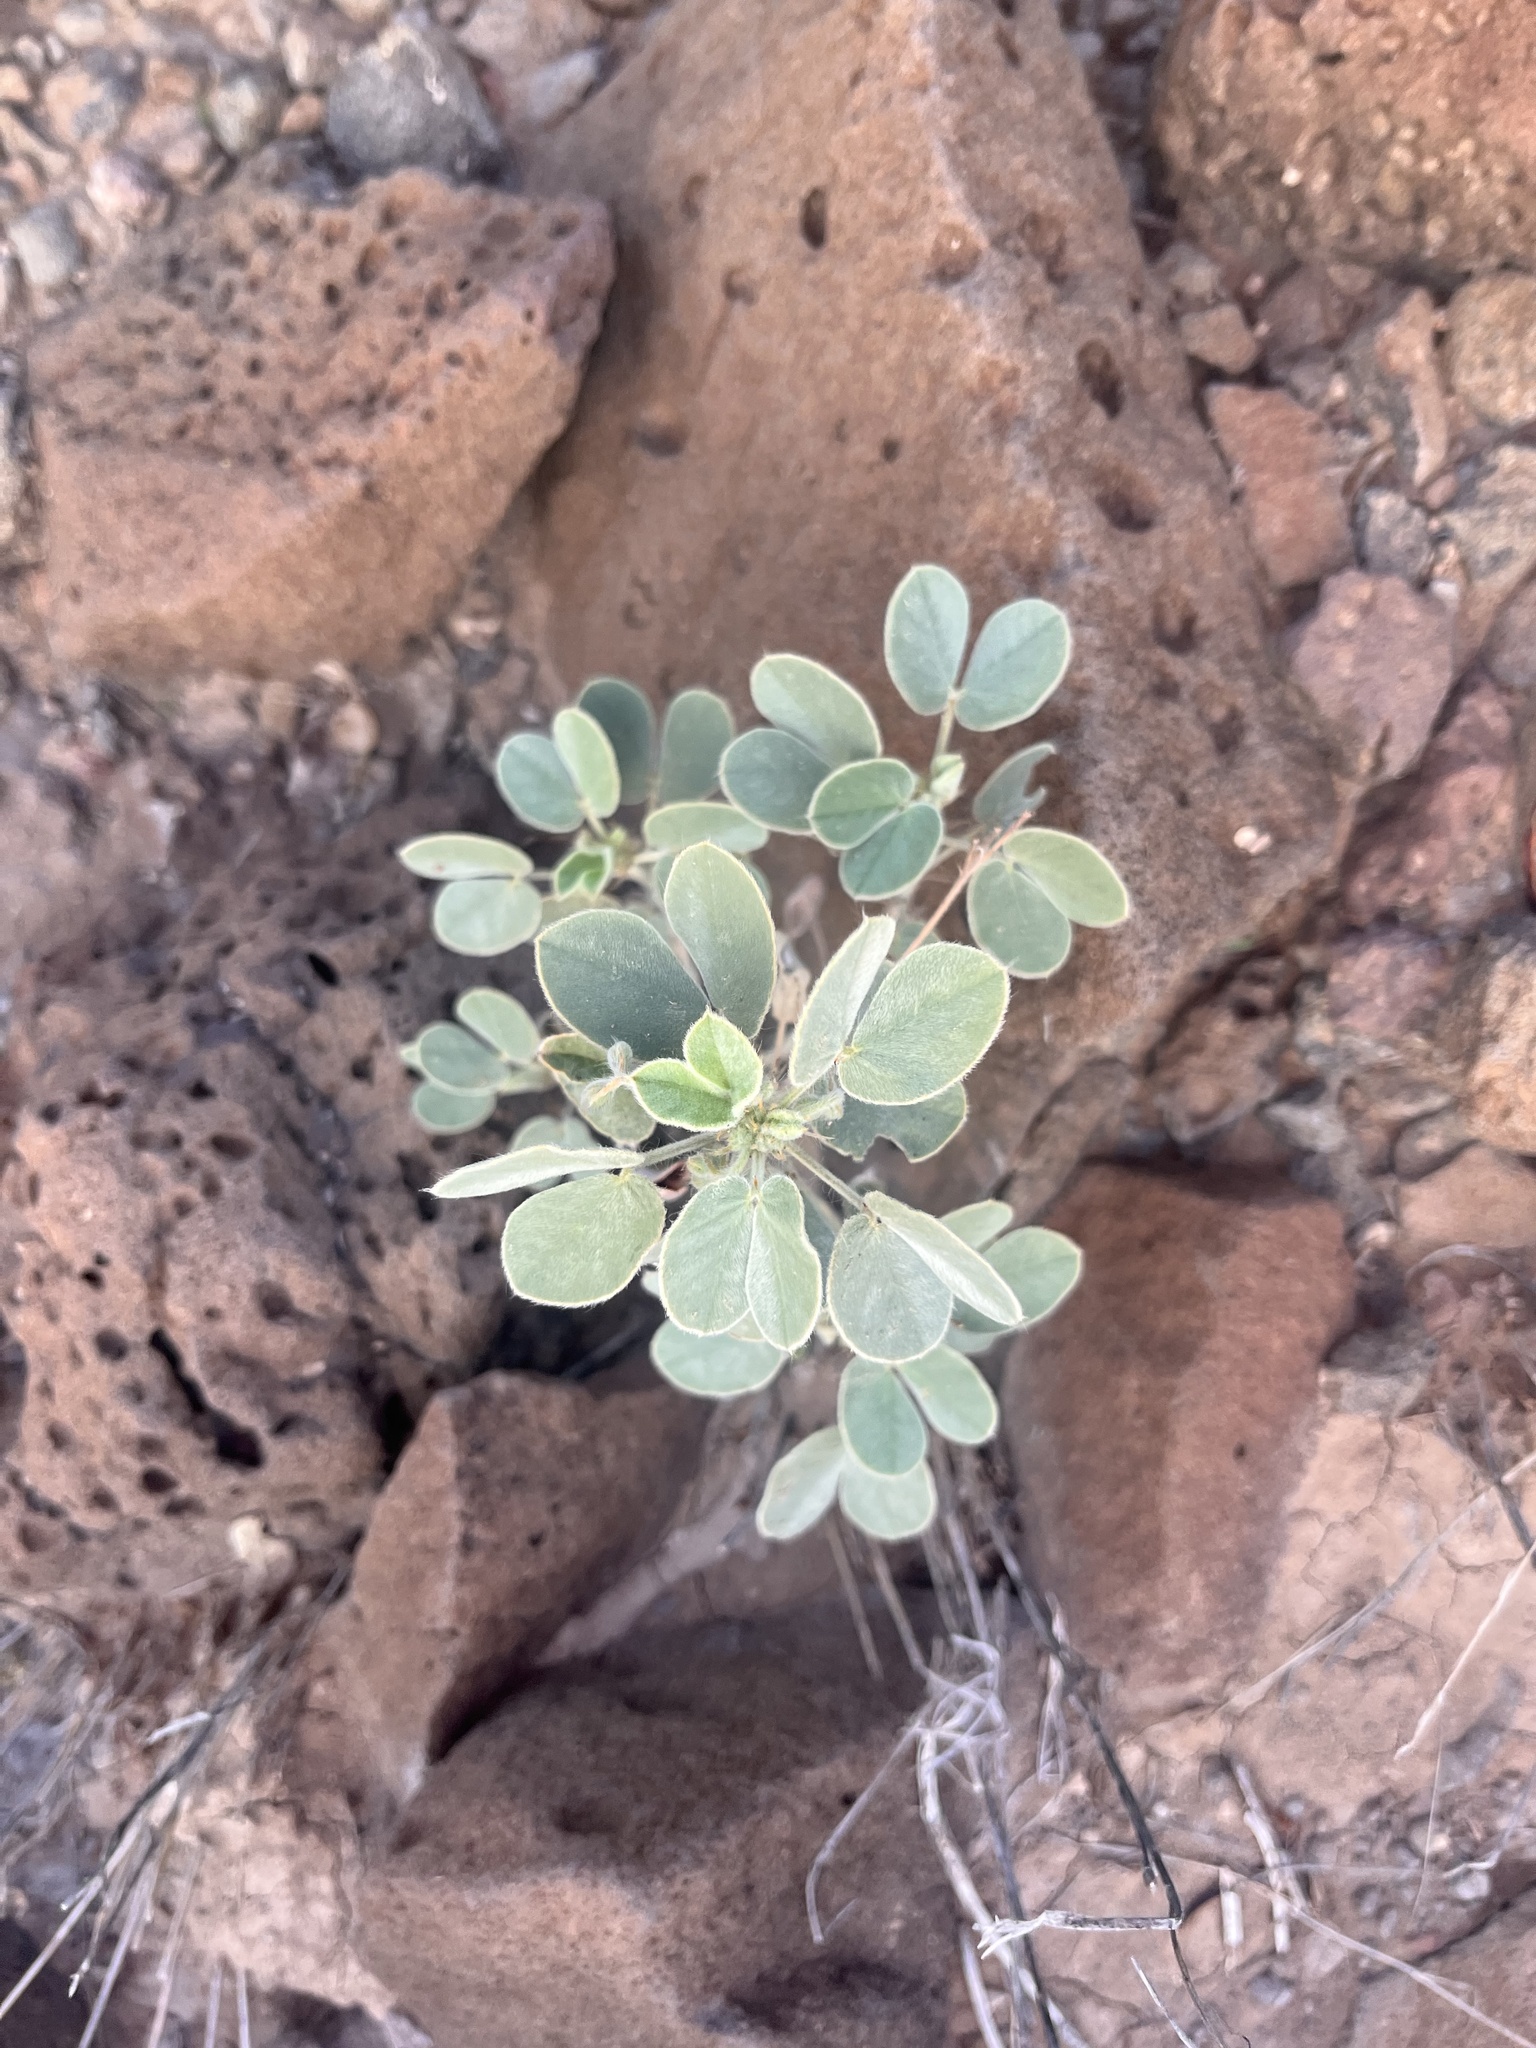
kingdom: Plantae
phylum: Tracheophyta
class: Magnoliopsida
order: Fabales
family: Fabaceae
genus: Senna
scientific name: Senna bauhinioides
